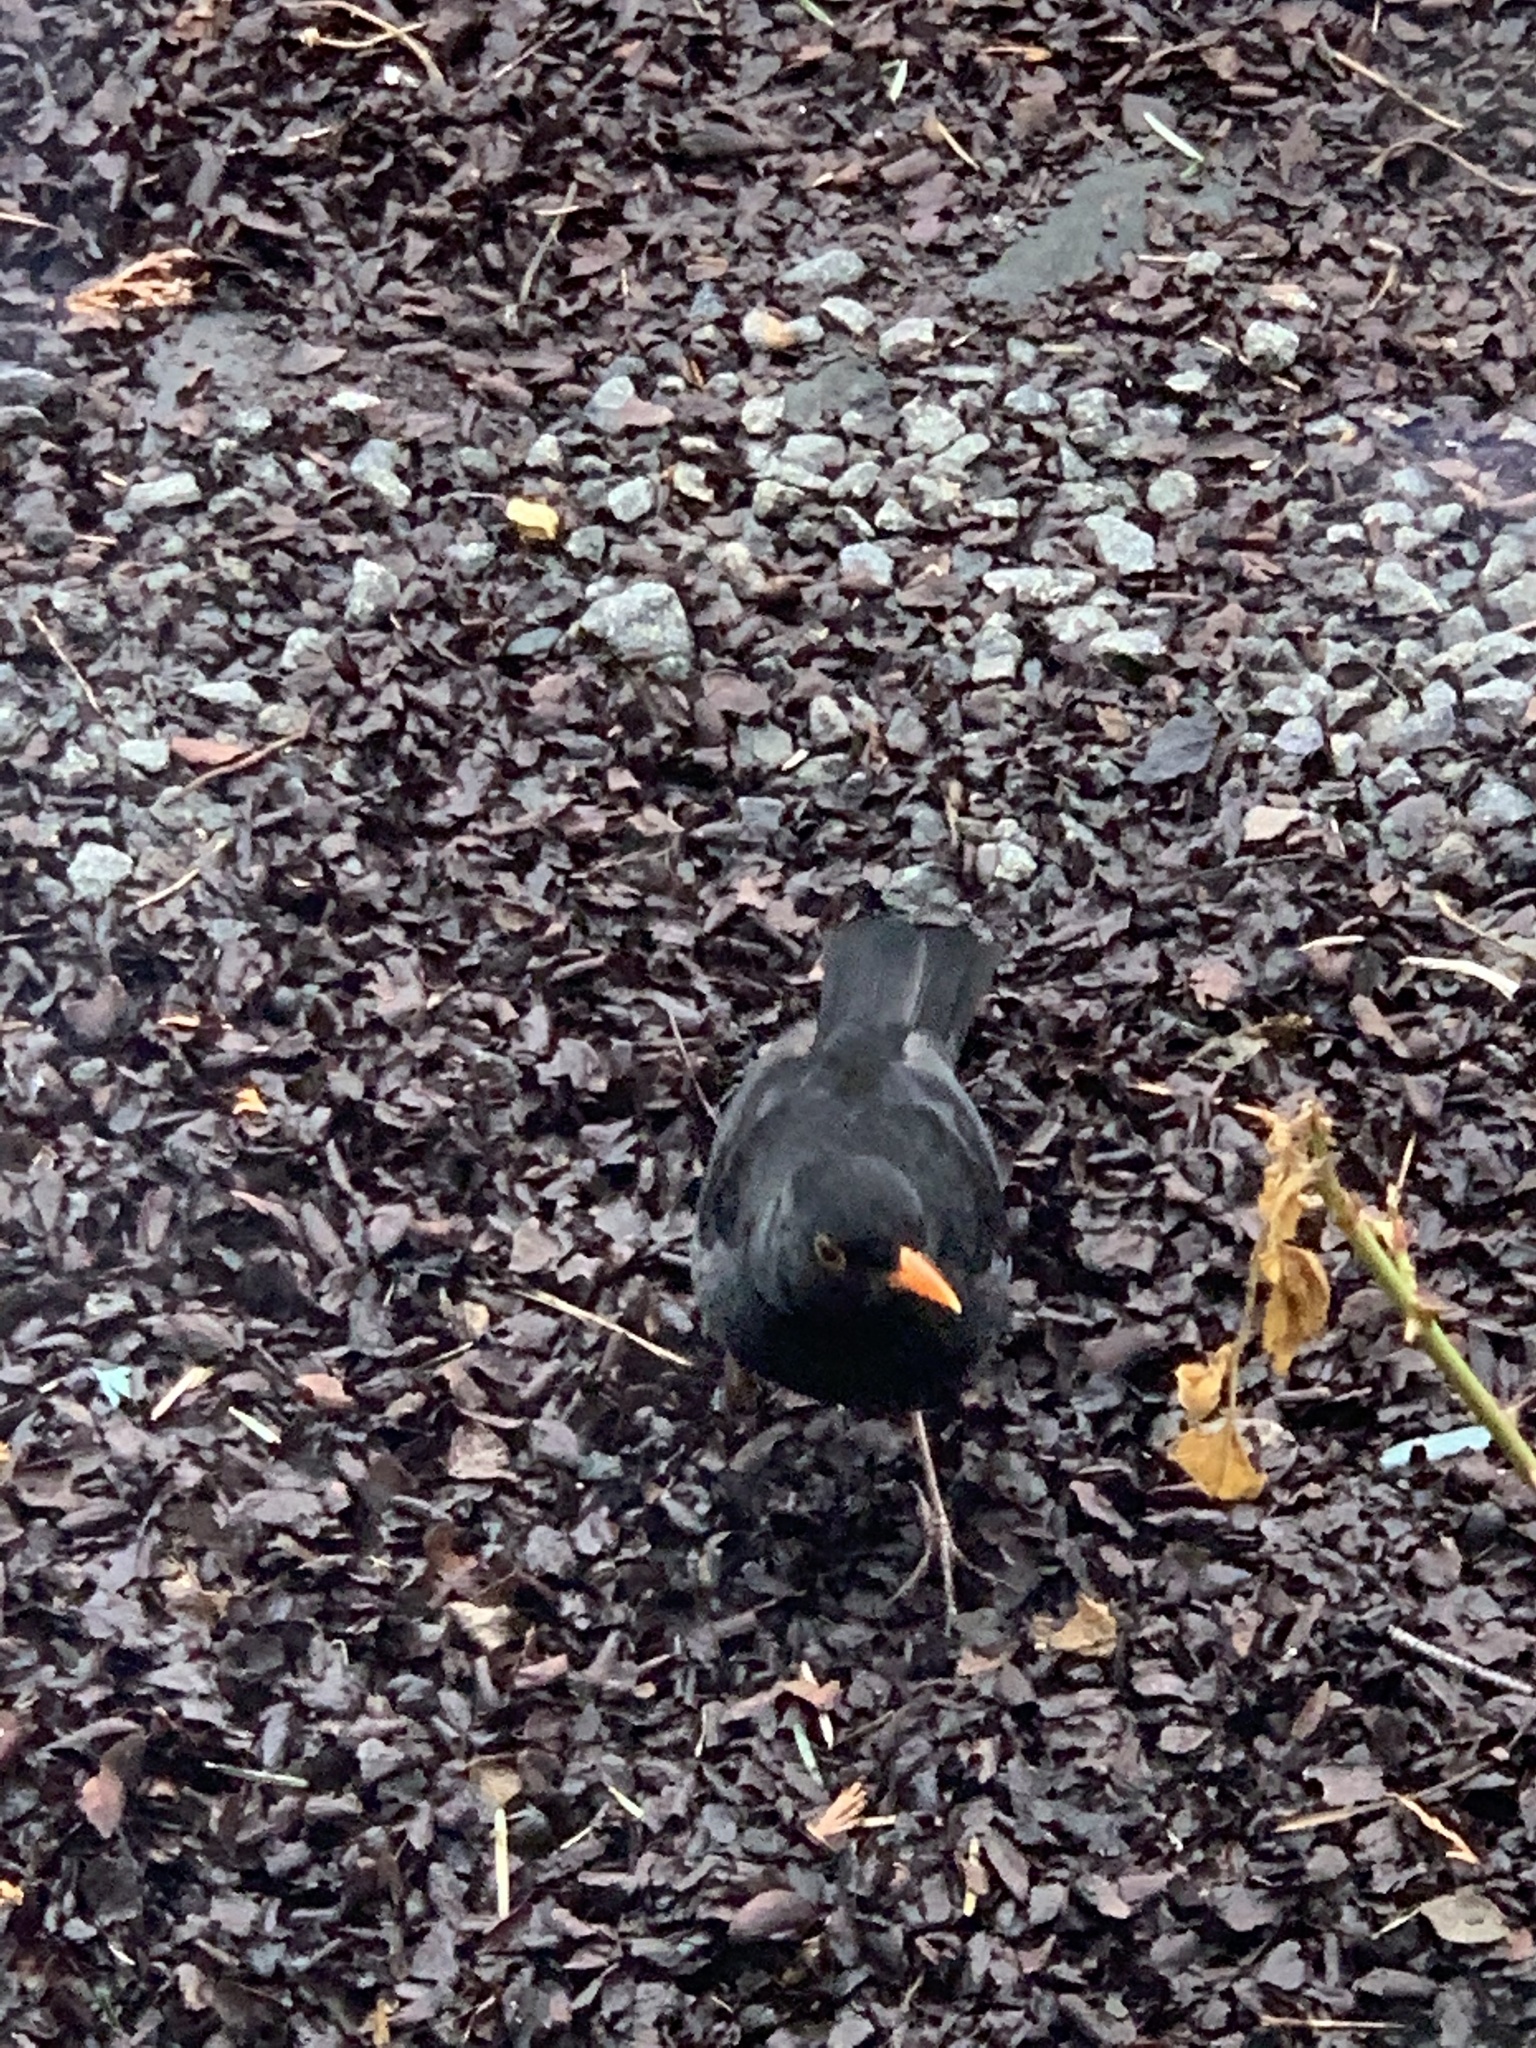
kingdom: Animalia
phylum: Chordata
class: Aves
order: Passeriformes
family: Turdidae
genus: Turdus
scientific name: Turdus merula
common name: Common blackbird
